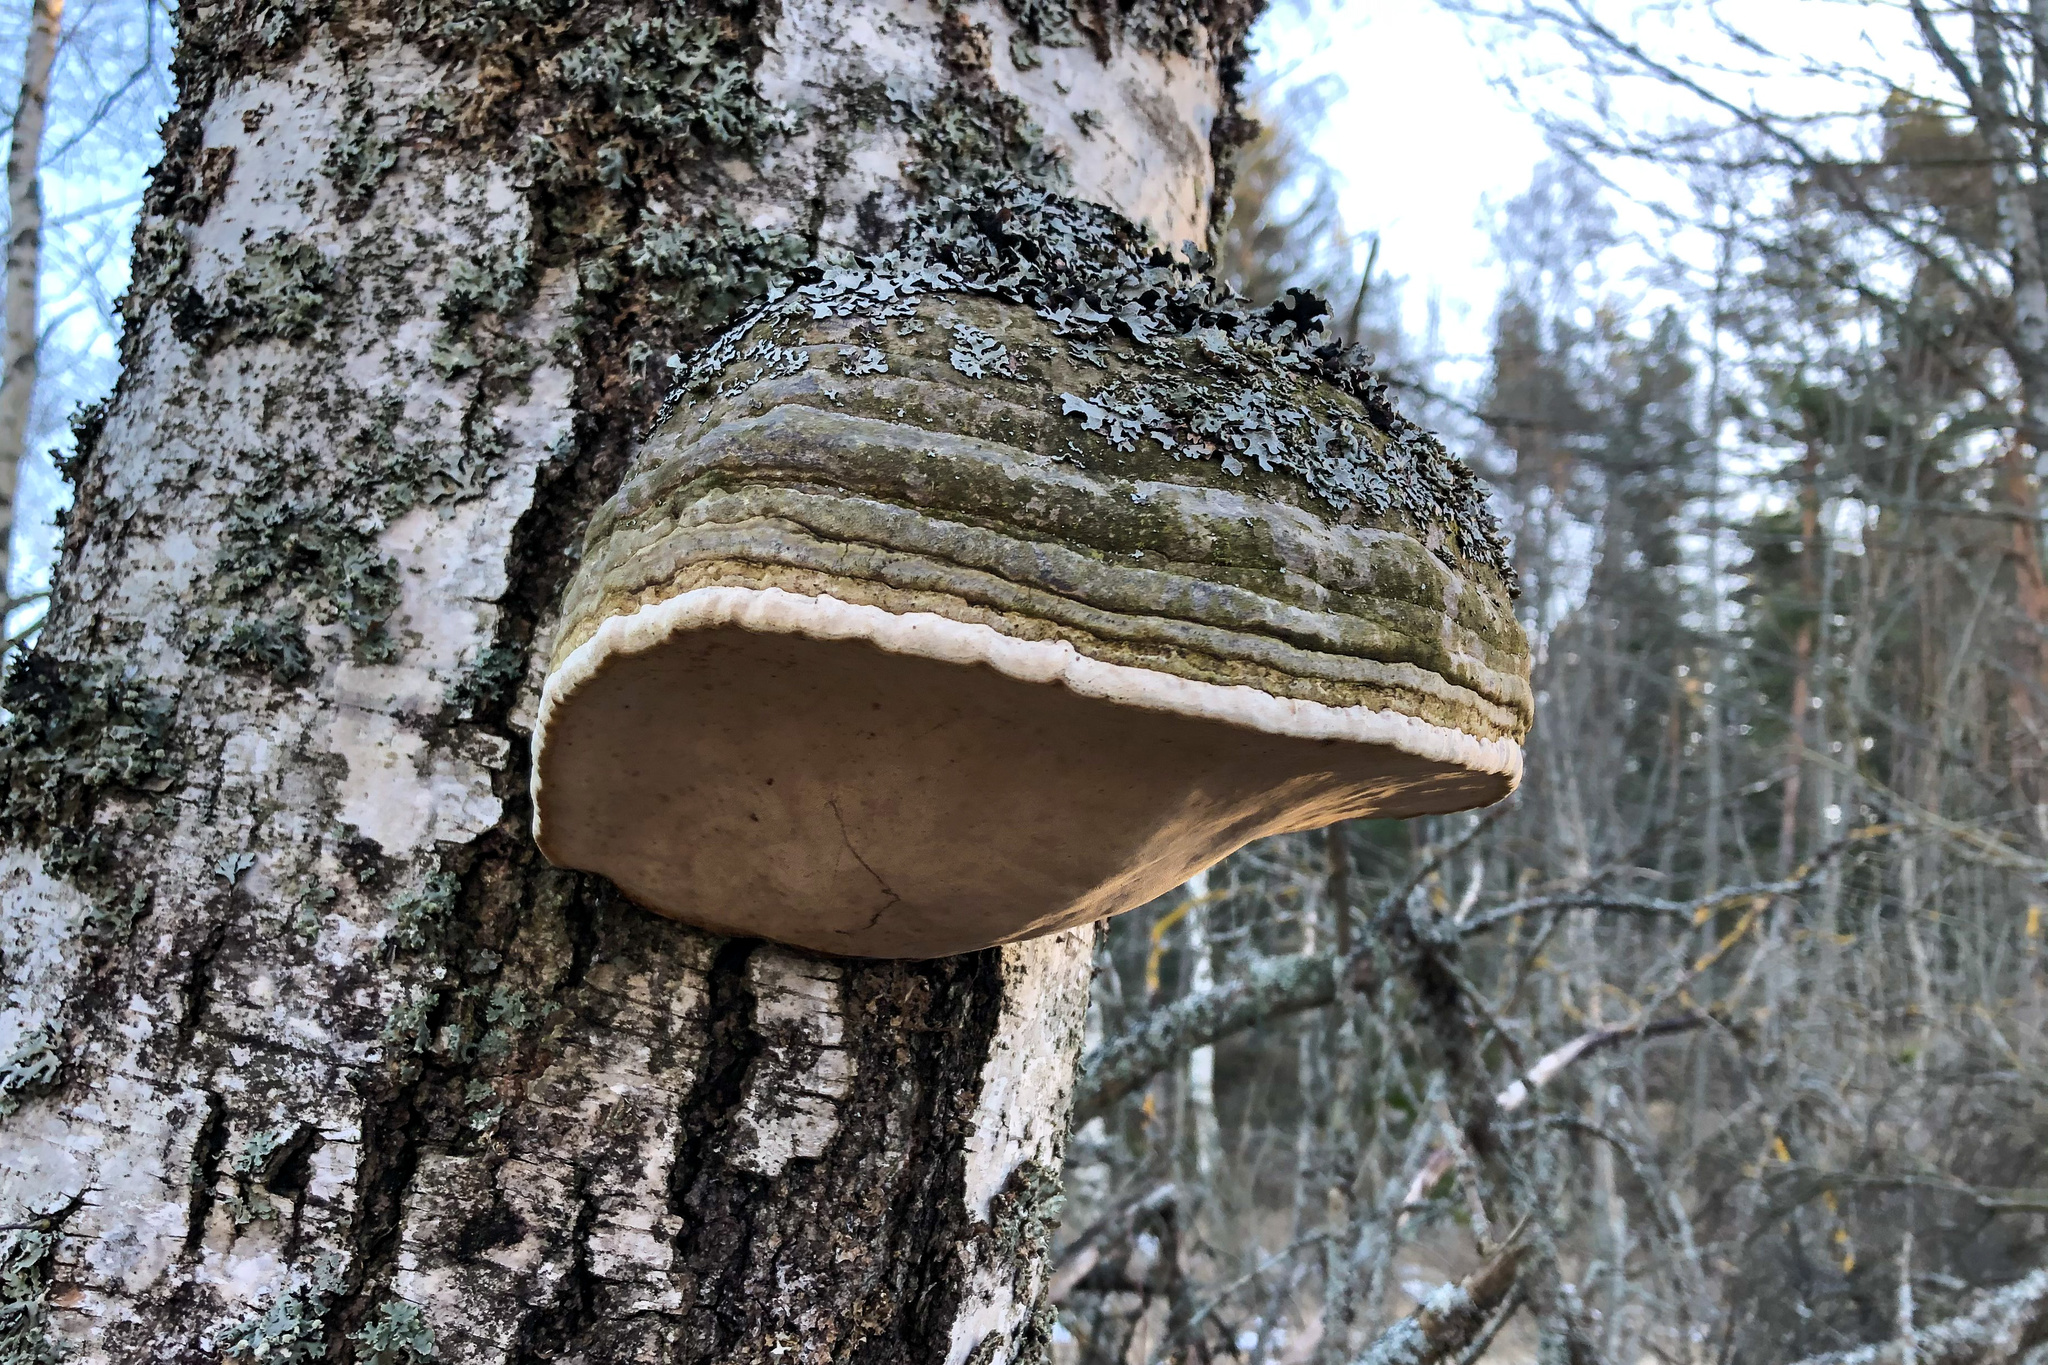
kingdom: Fungi
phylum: Basidiomycota
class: Agaricomycetes
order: Polyporales
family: Polyporaceae
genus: Fomes
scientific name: Fomes fomentarius
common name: Hoof fungus
